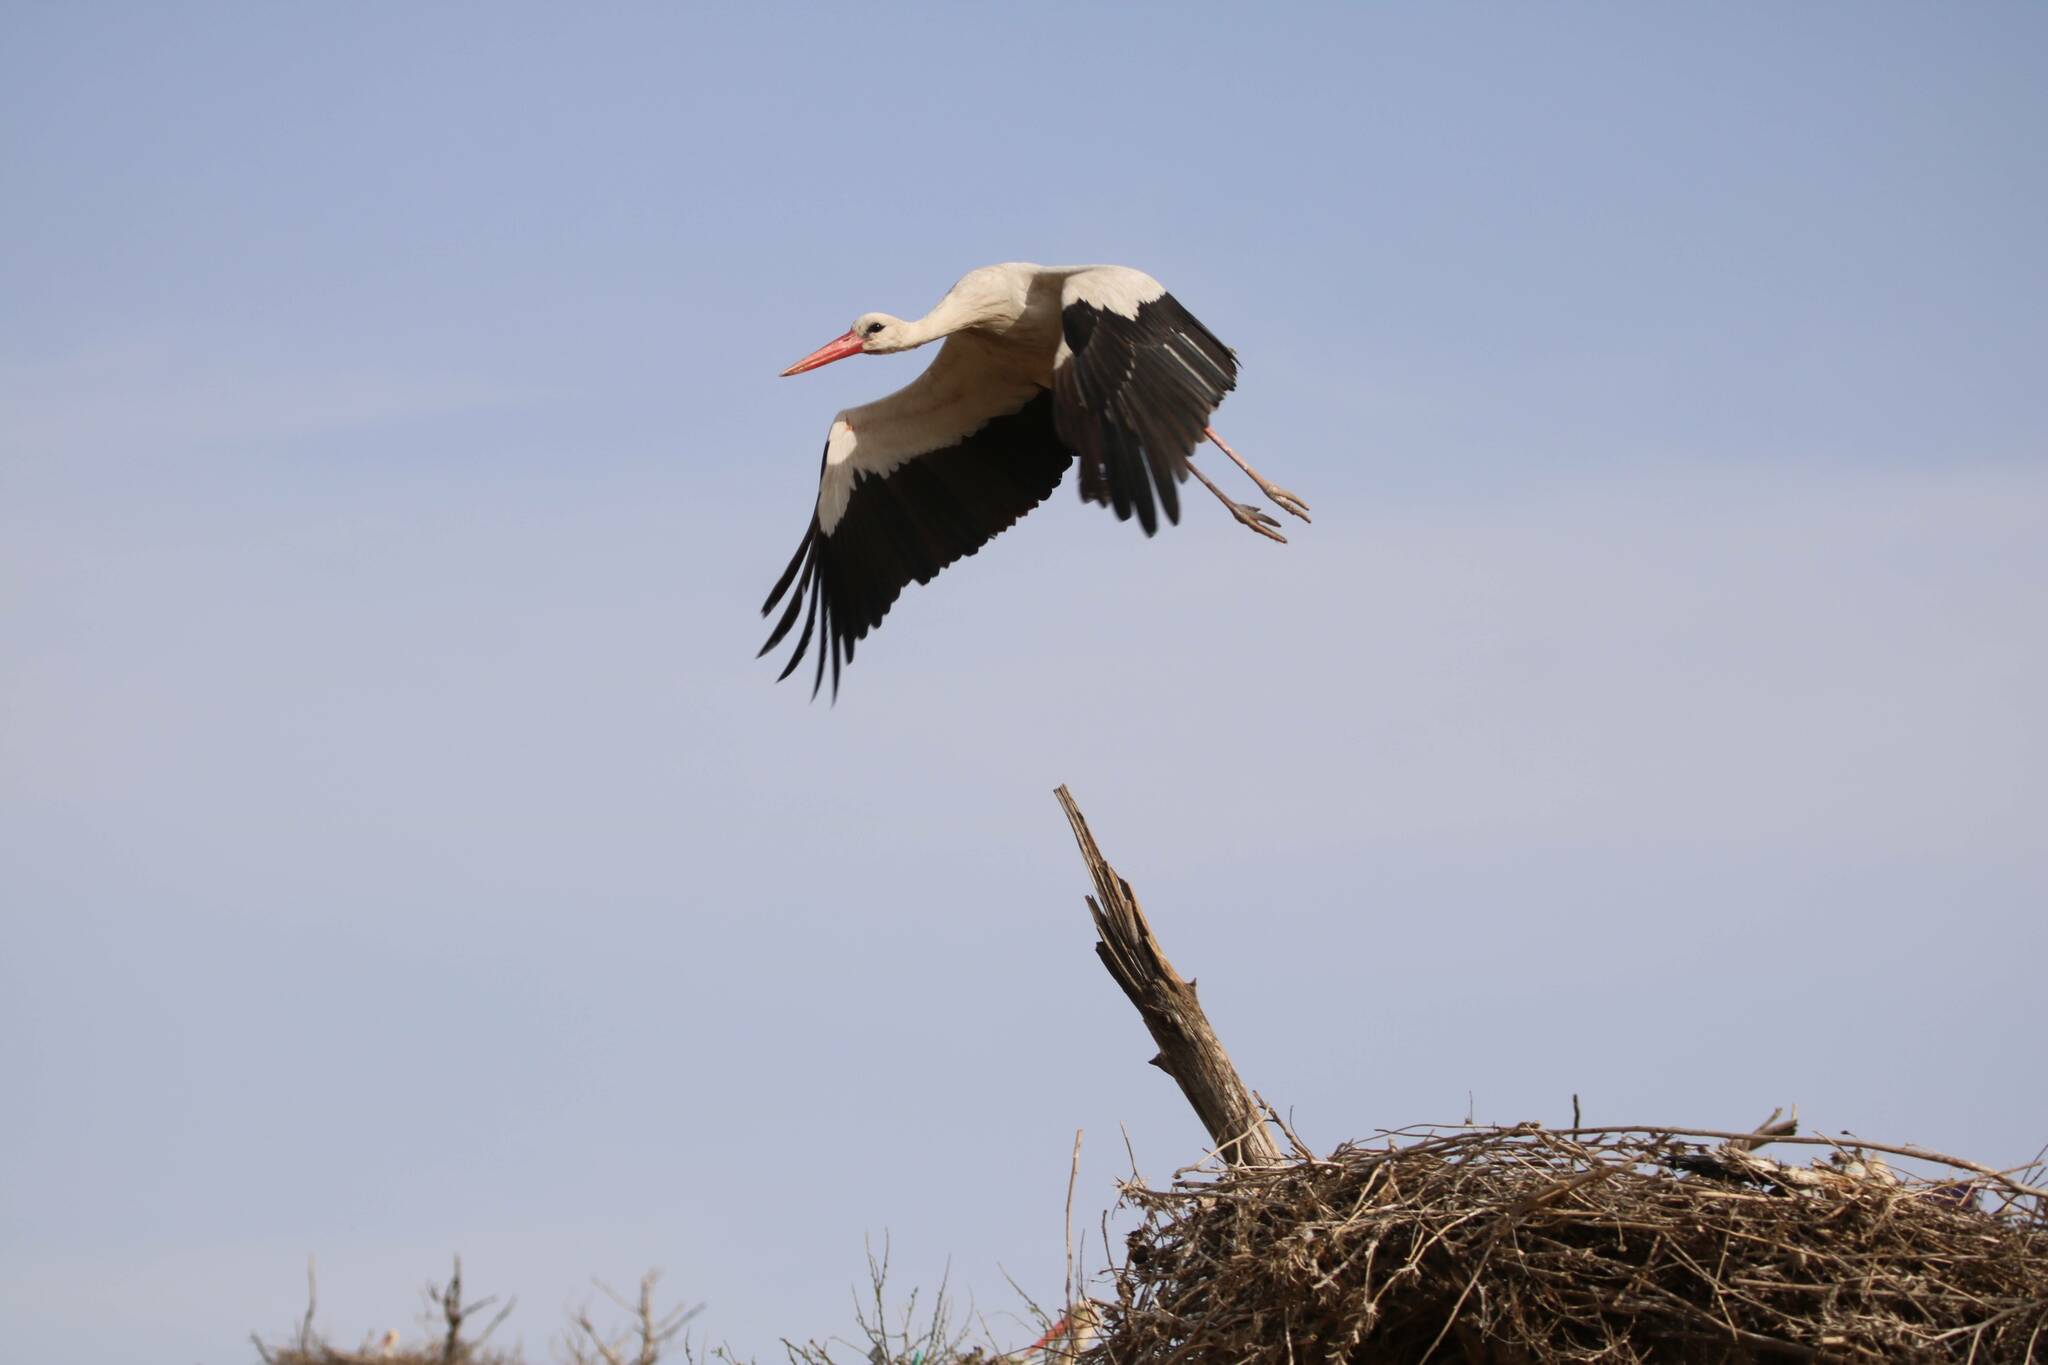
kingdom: Animalia
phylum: Chordata
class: Aves
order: Ciconiiformes
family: Ciconiidae
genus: Ciconia
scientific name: Ciconia ciconia
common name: White stork
